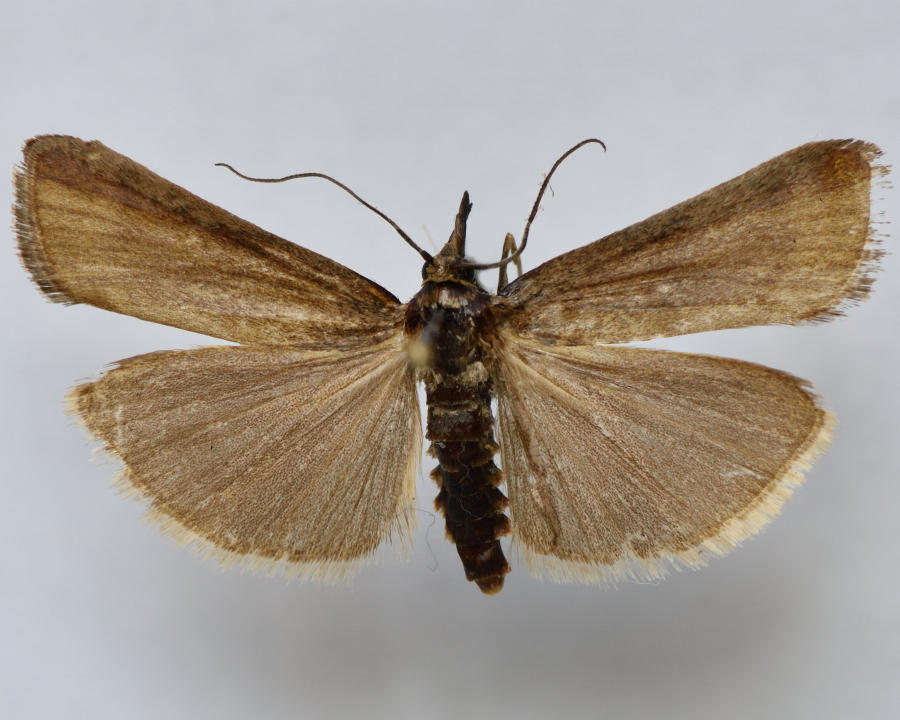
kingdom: Animalia
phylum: Arthropoda
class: Insecta
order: Lepidoptera
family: Pyralidae
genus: Hypochalcia
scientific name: Hypochalcia ahenella
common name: Dingy knot-horn
